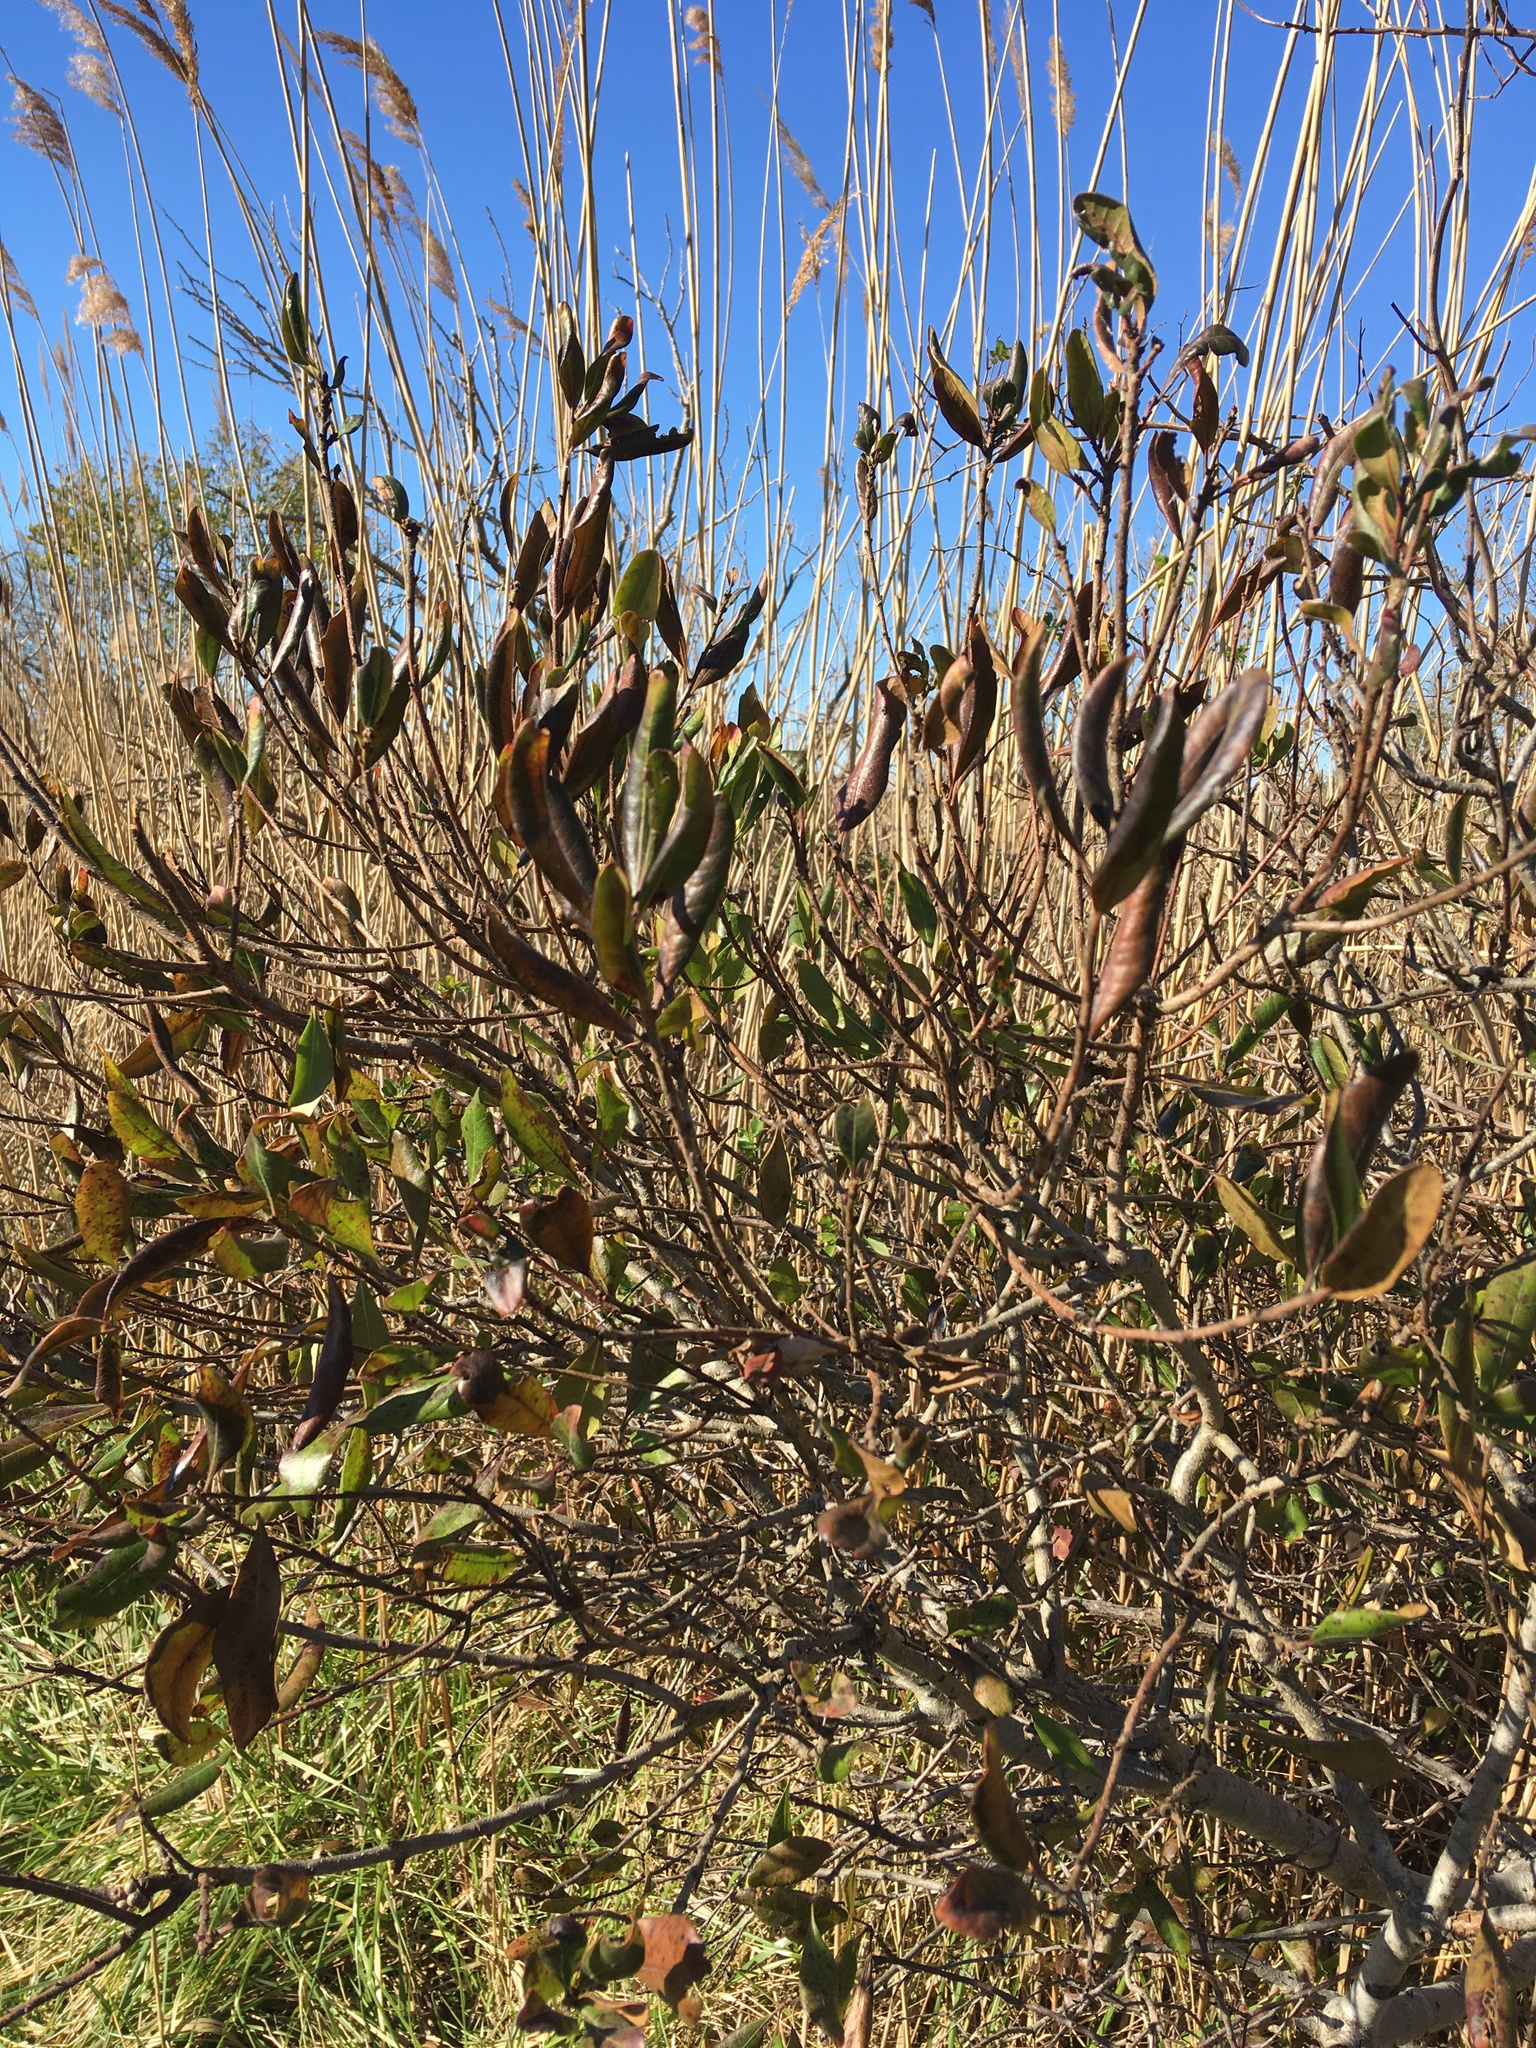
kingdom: Plantae
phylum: Tracheophyta
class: Magnoliopsida
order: Fagales
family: Myricaceae
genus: Morella
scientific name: Morella pensylvanica
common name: Northern bayberry
